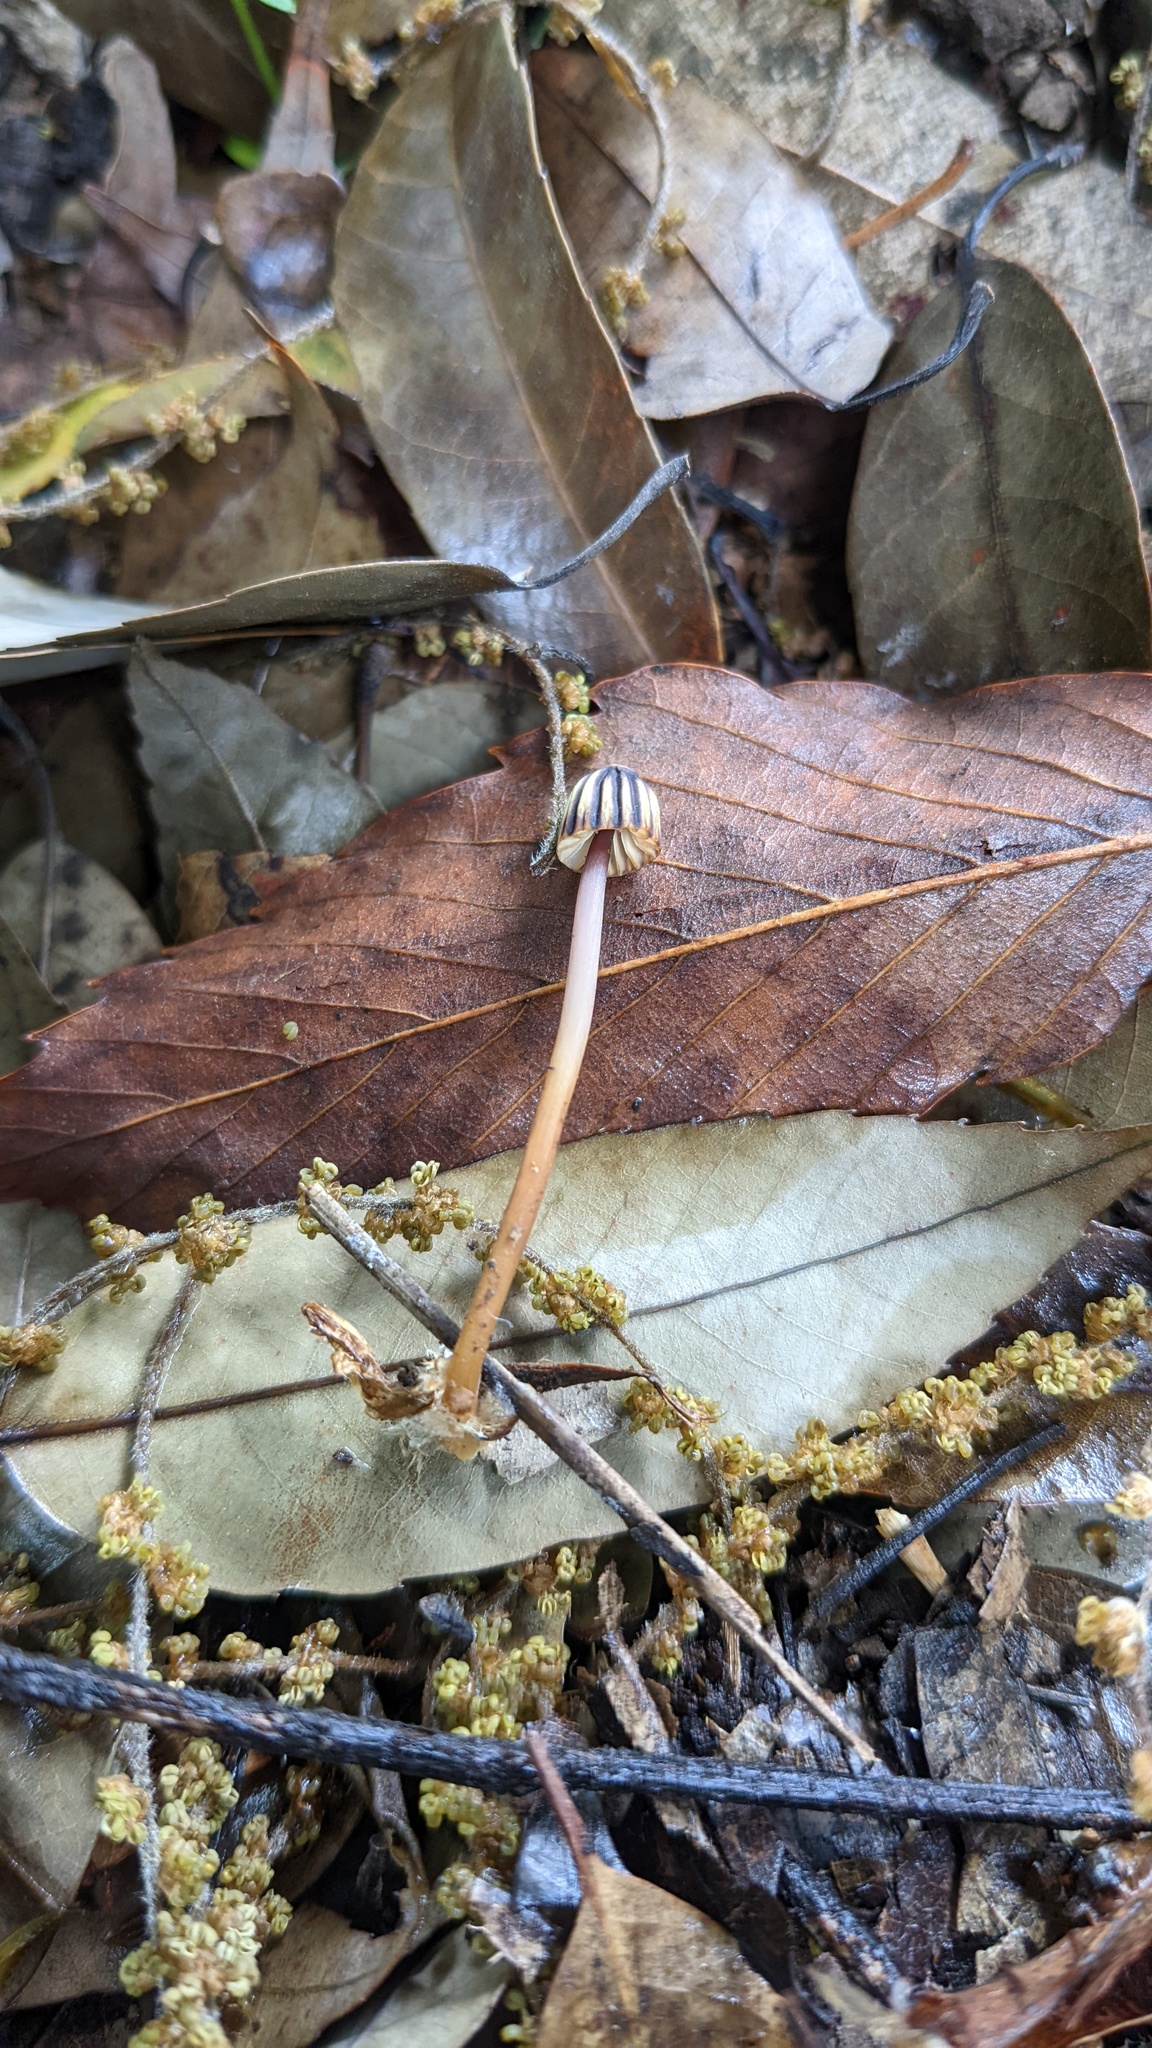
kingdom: Fungi
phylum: Basidiomycota
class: Agaricomycetes
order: Agaricales
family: Marasmiaceae
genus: Marasmius
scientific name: Marasmius purpureostriatus
